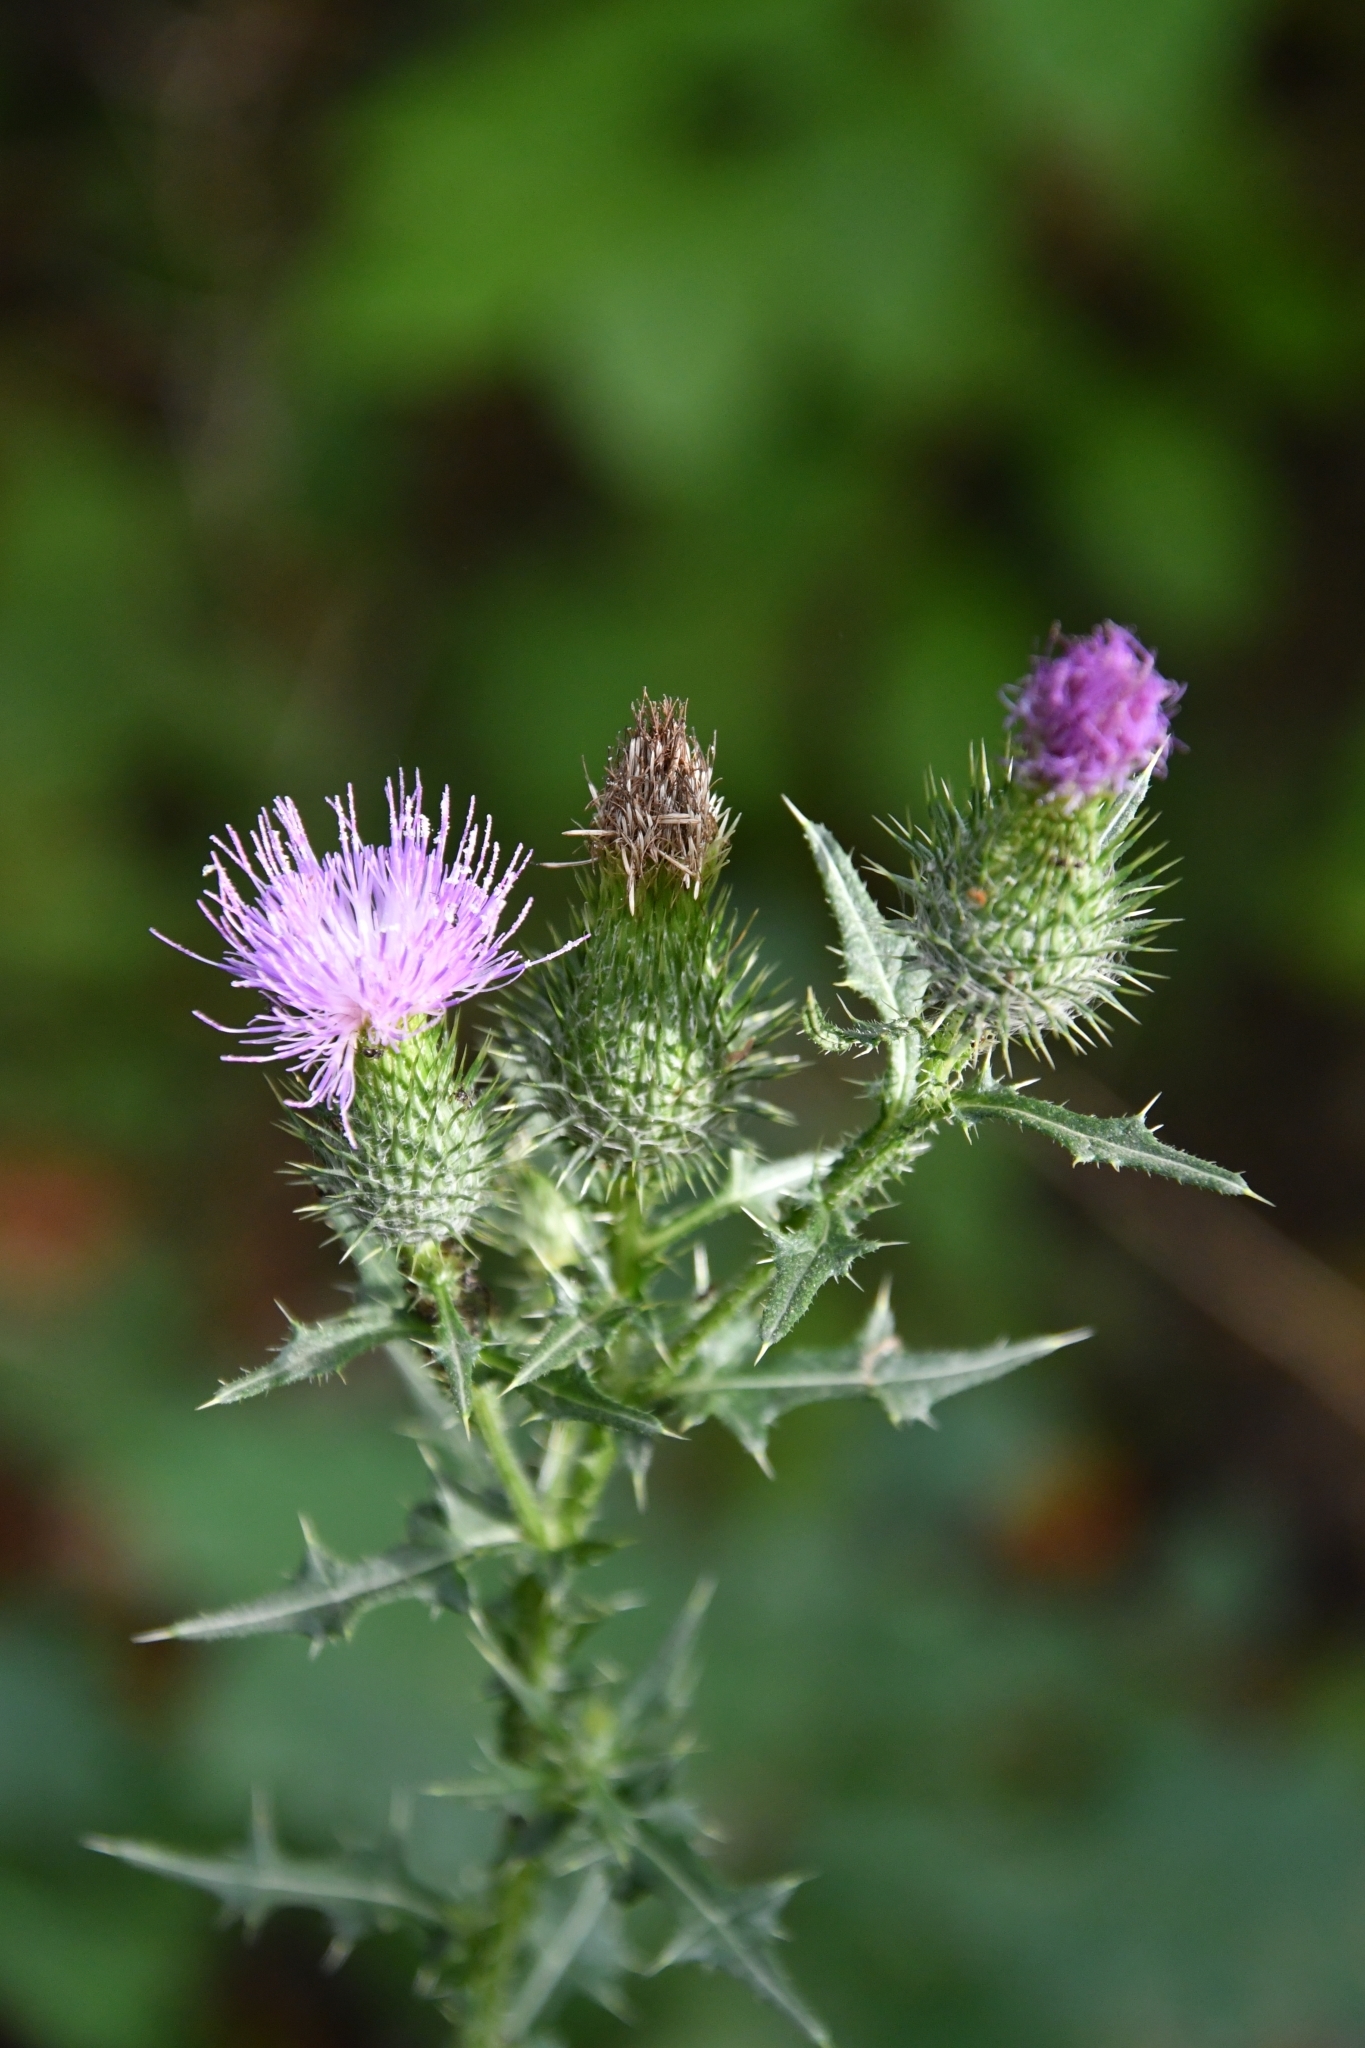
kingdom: Plantae
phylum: Tracheophyta
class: Magnoliopsida
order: Asterales
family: Asteraceae
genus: Cirsium
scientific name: Cirsium vulgare
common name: Bull thistle
